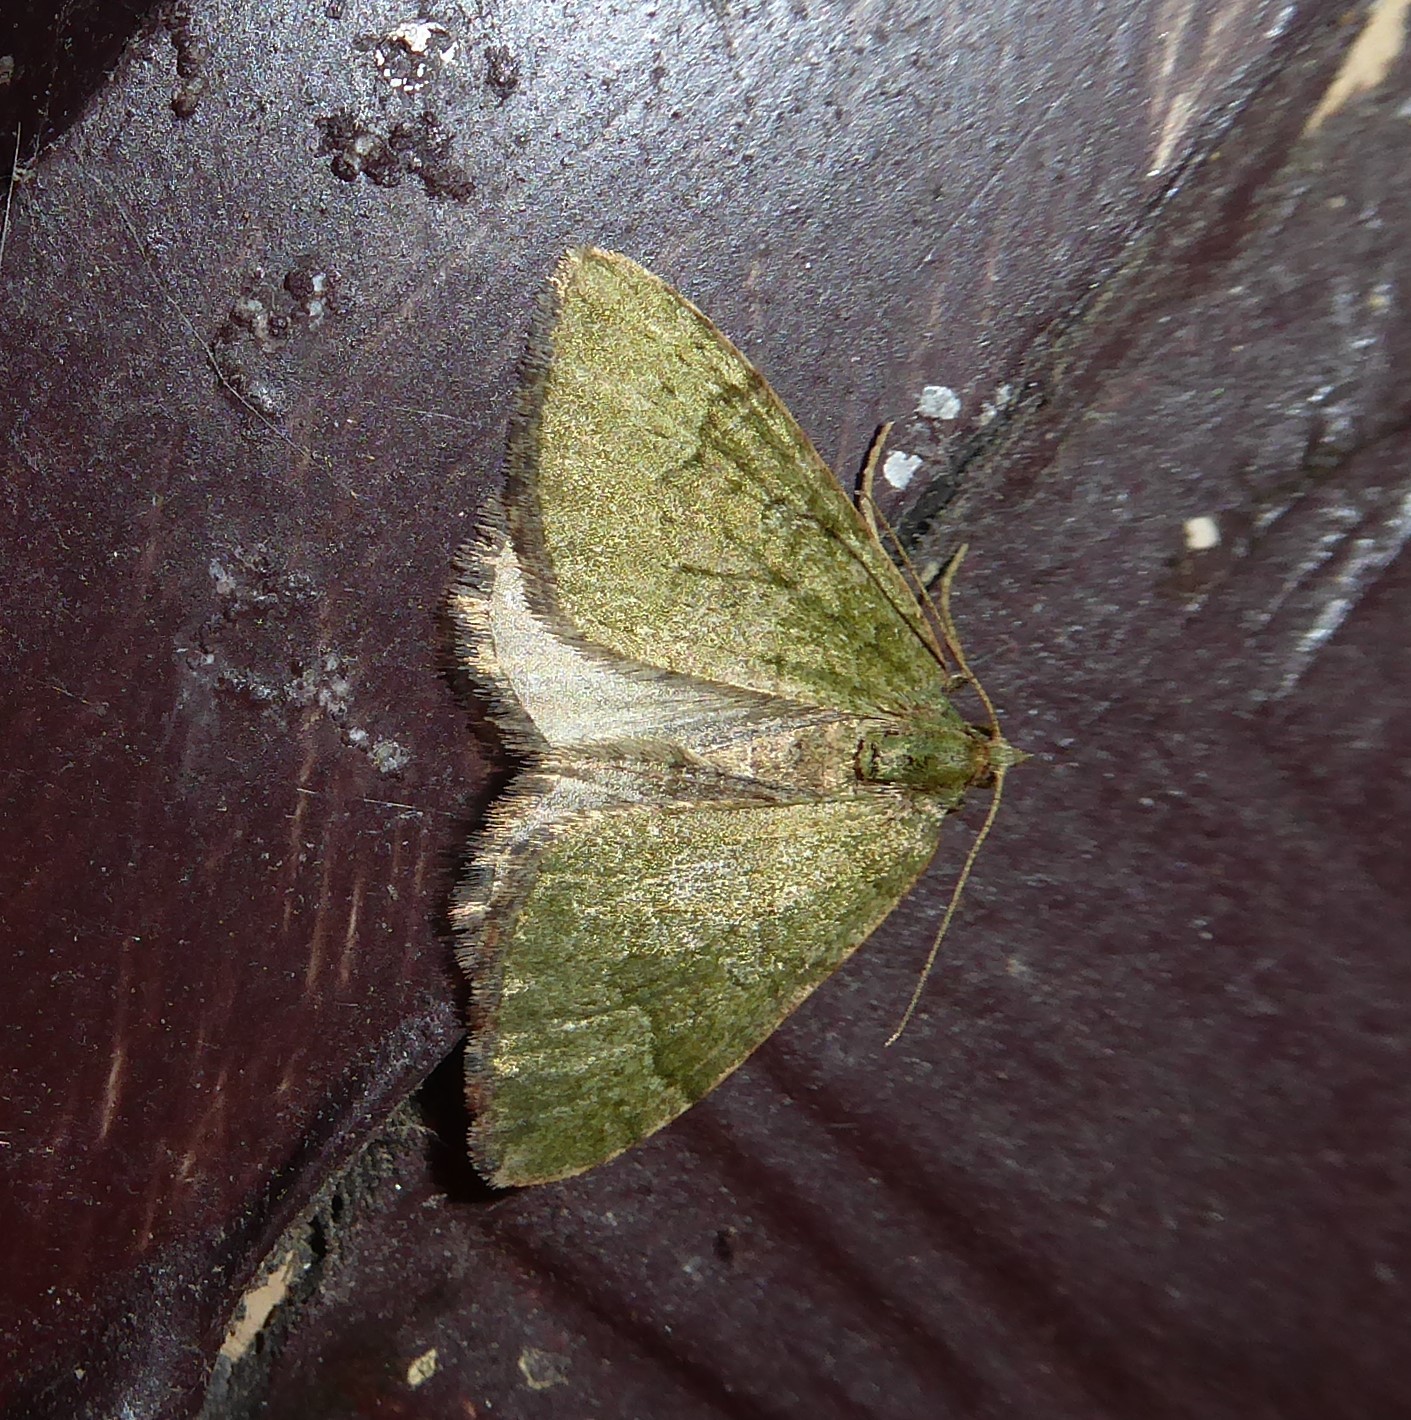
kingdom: Animalia
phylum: Arthropoda
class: Insecta
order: Lepidoptera
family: Geometridae
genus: Epyaxa
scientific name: Epyaxa rosearia
